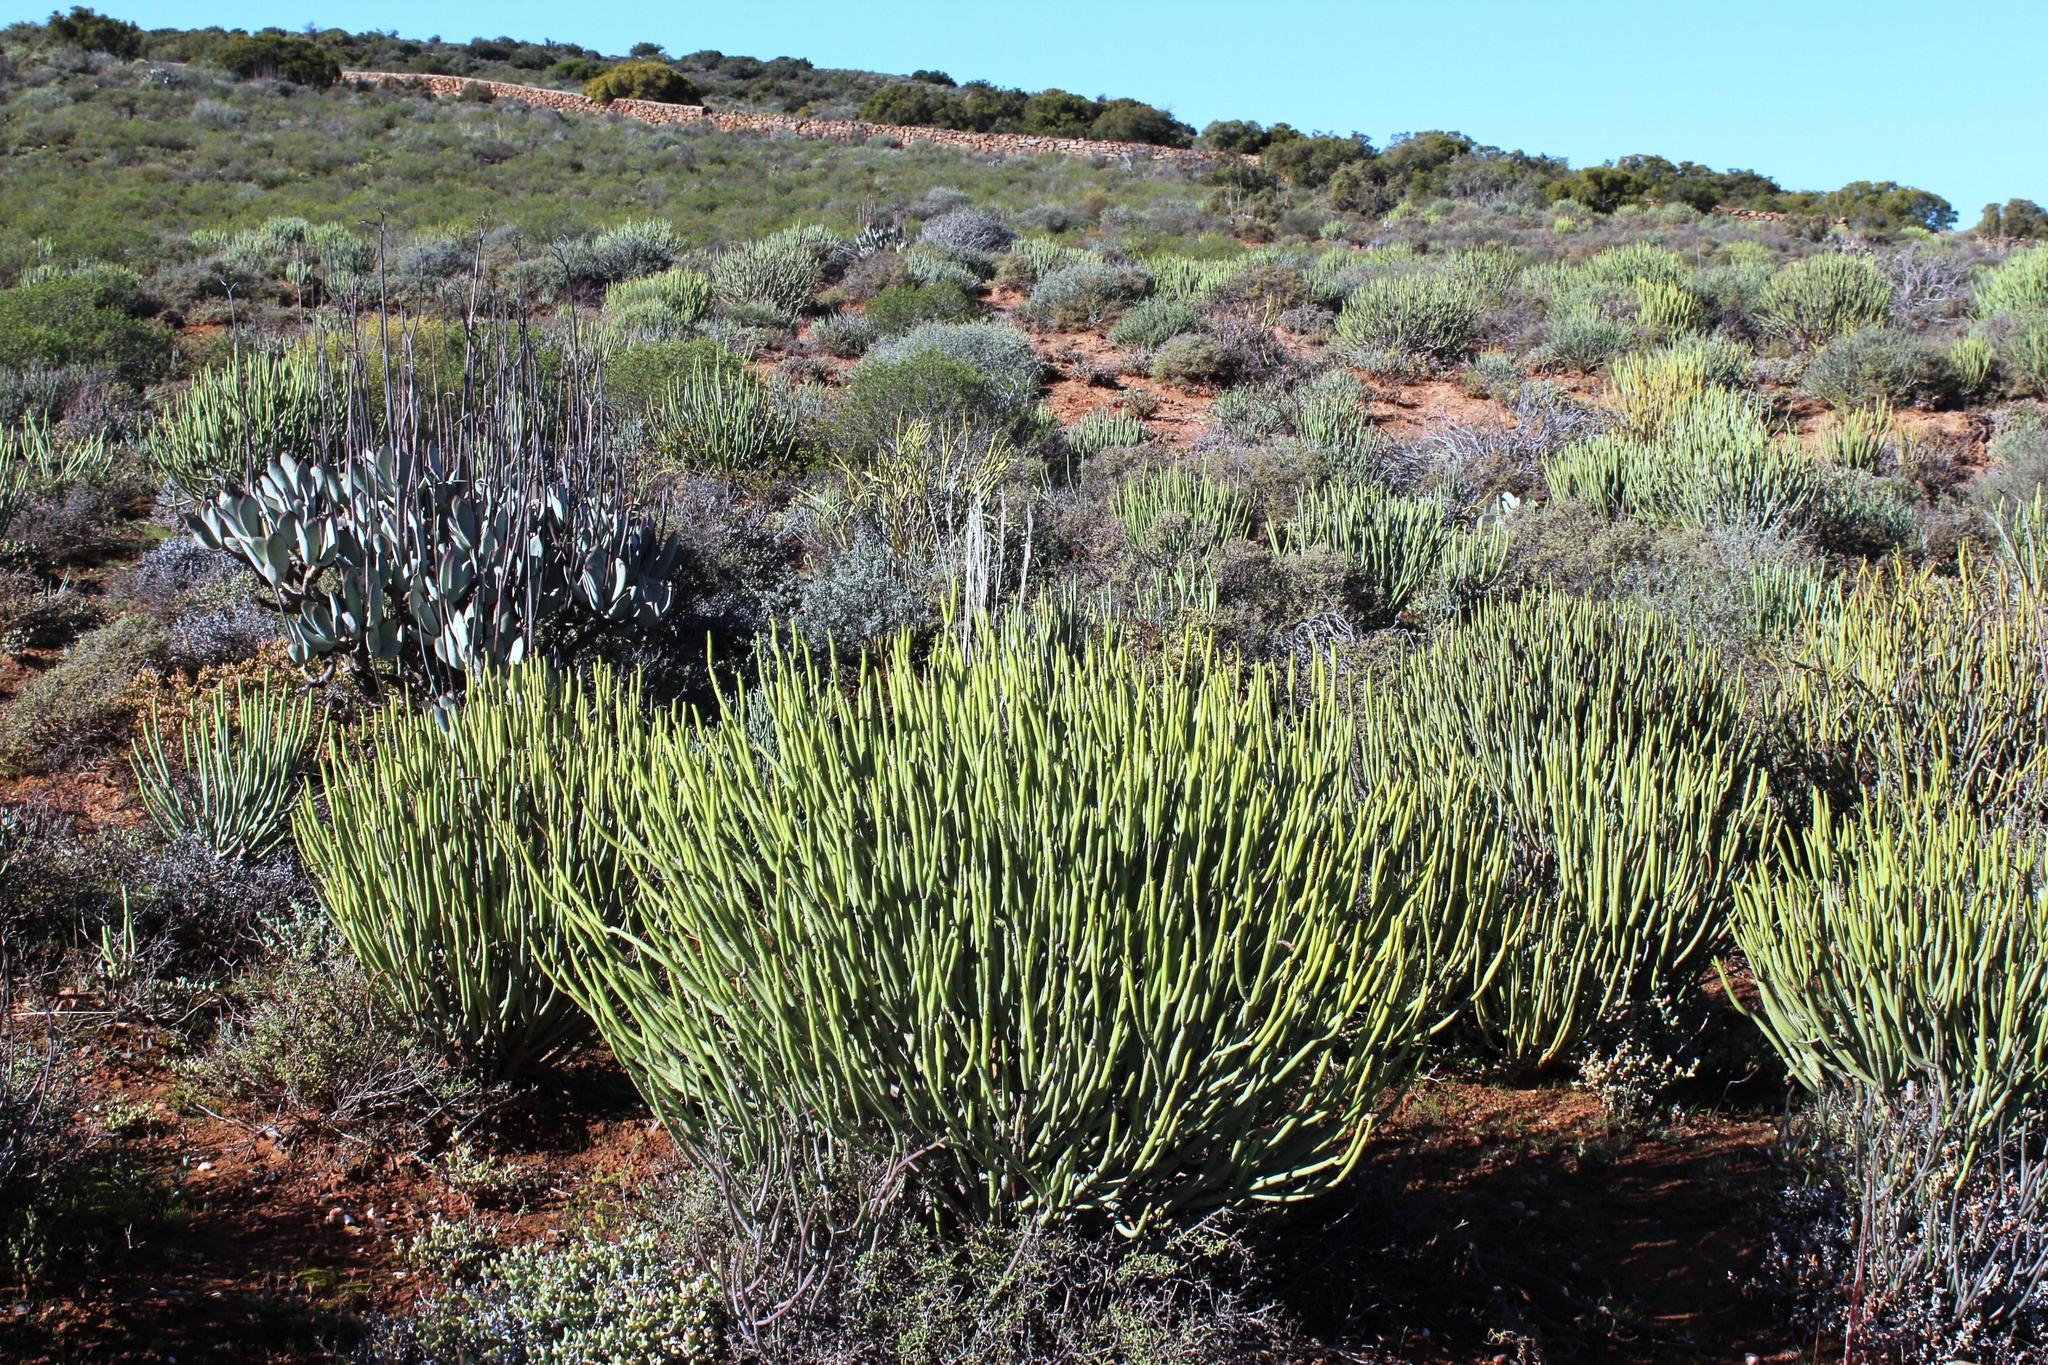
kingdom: Plantae
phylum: Tracheophyta
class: Magnoliopsida
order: Malpighiales
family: Euphorbiaceae
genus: Euphorbia
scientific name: Euphorbia mauritanica
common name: Jackal's-food
